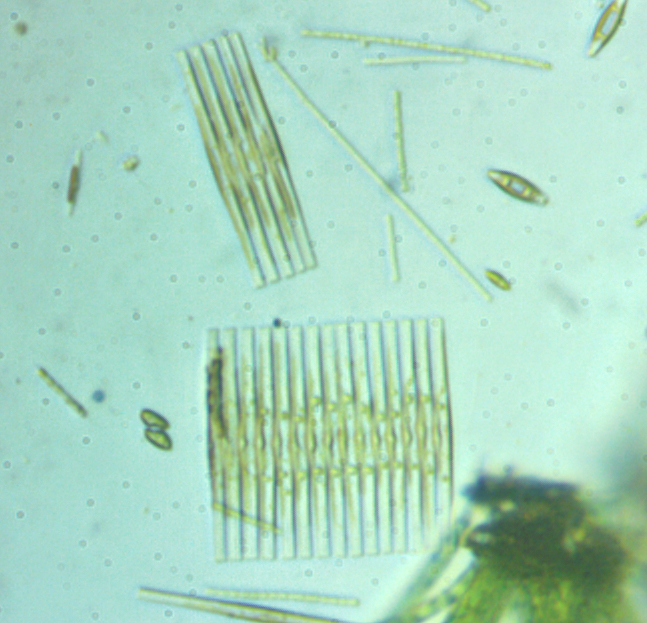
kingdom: Chromista
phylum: Ochrophyta
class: Bacillariophyceae
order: Fragilariales
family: Fragilariaceae
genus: Fragilaria
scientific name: Fragilaria crotonensis
